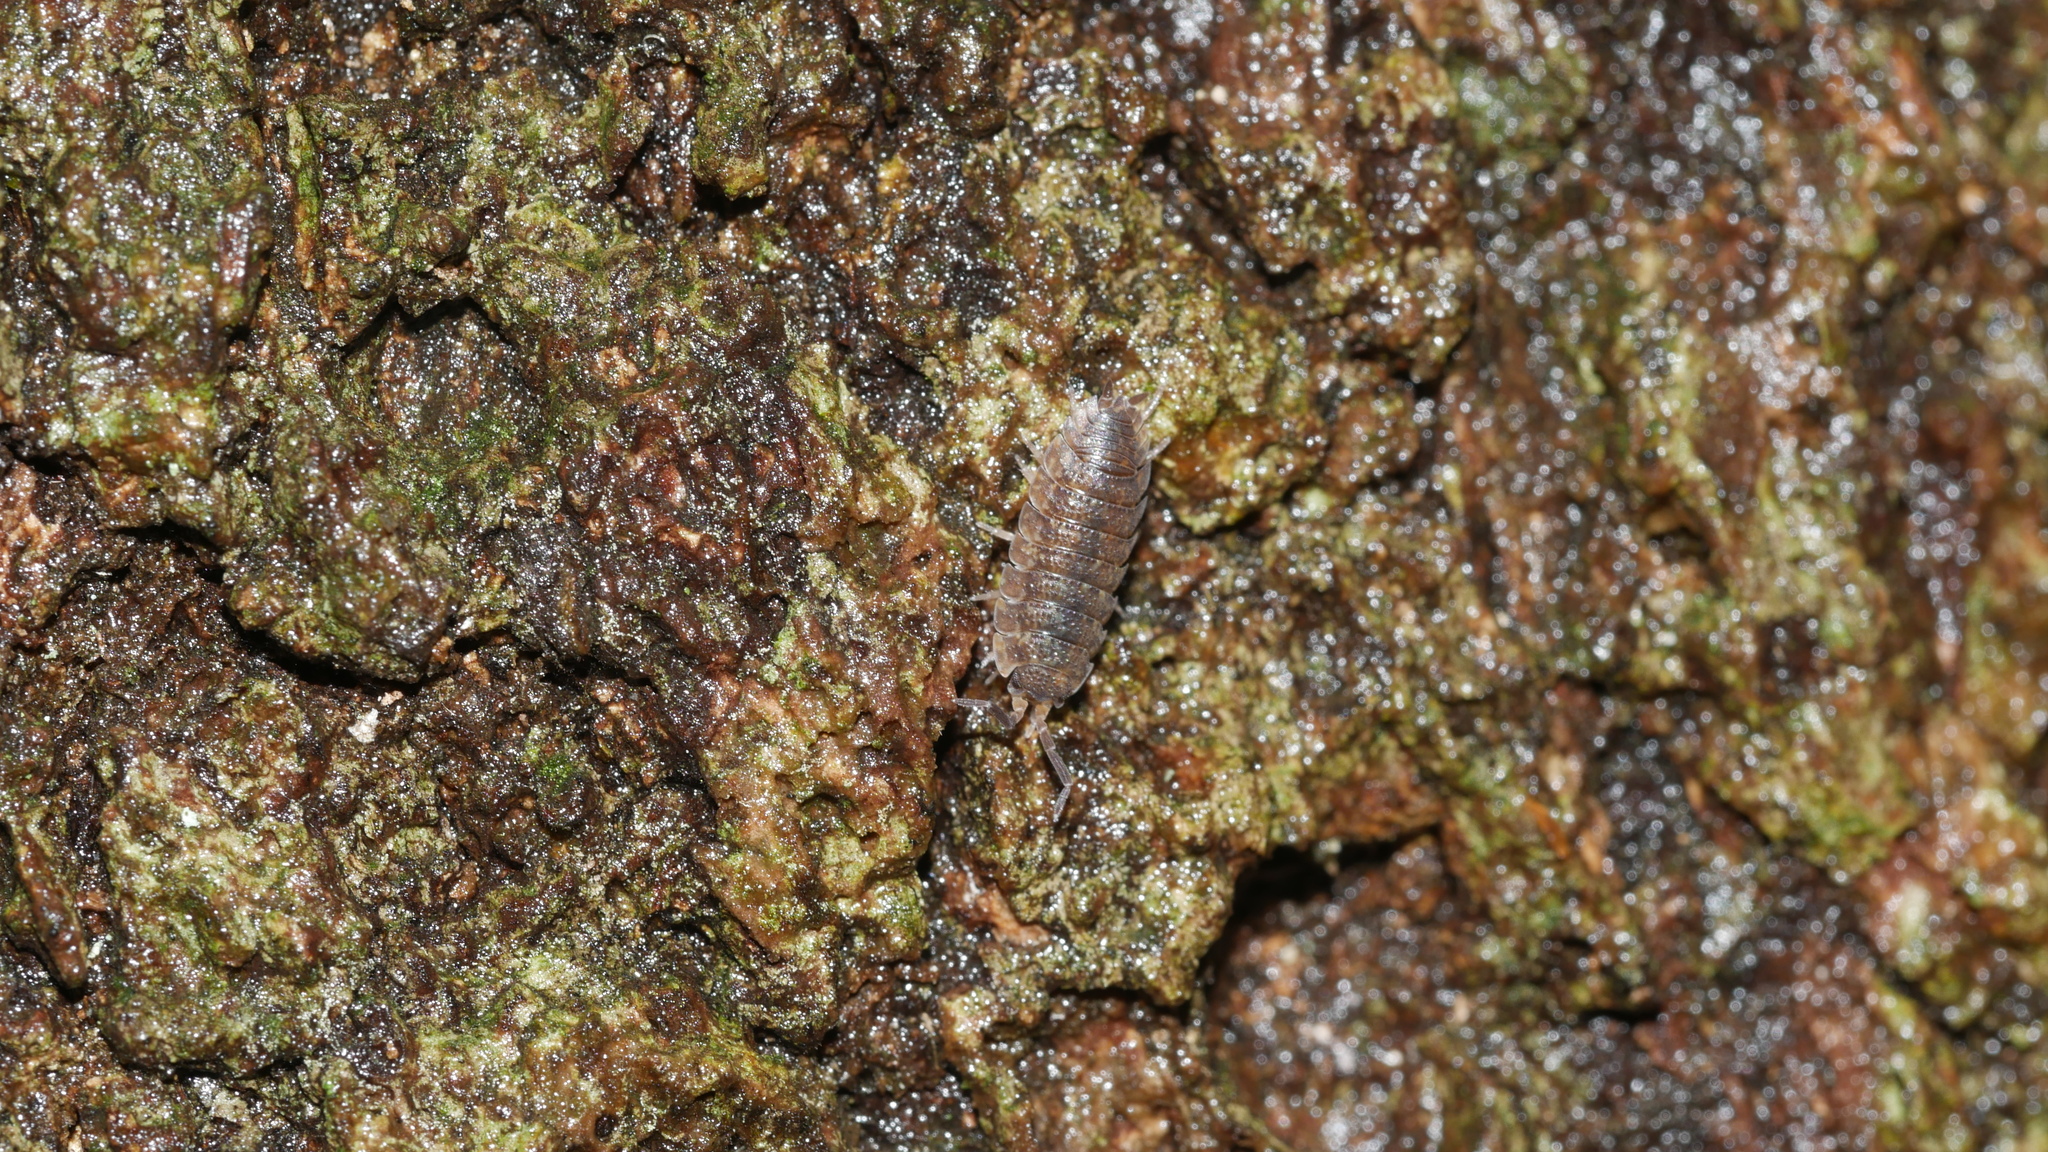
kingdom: Animalia
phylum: Arthropoda
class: Malacostraca
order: Isopoda
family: Porcellionidae
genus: Porcellio
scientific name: Porcellio scaber
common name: Common rough woodlouse
